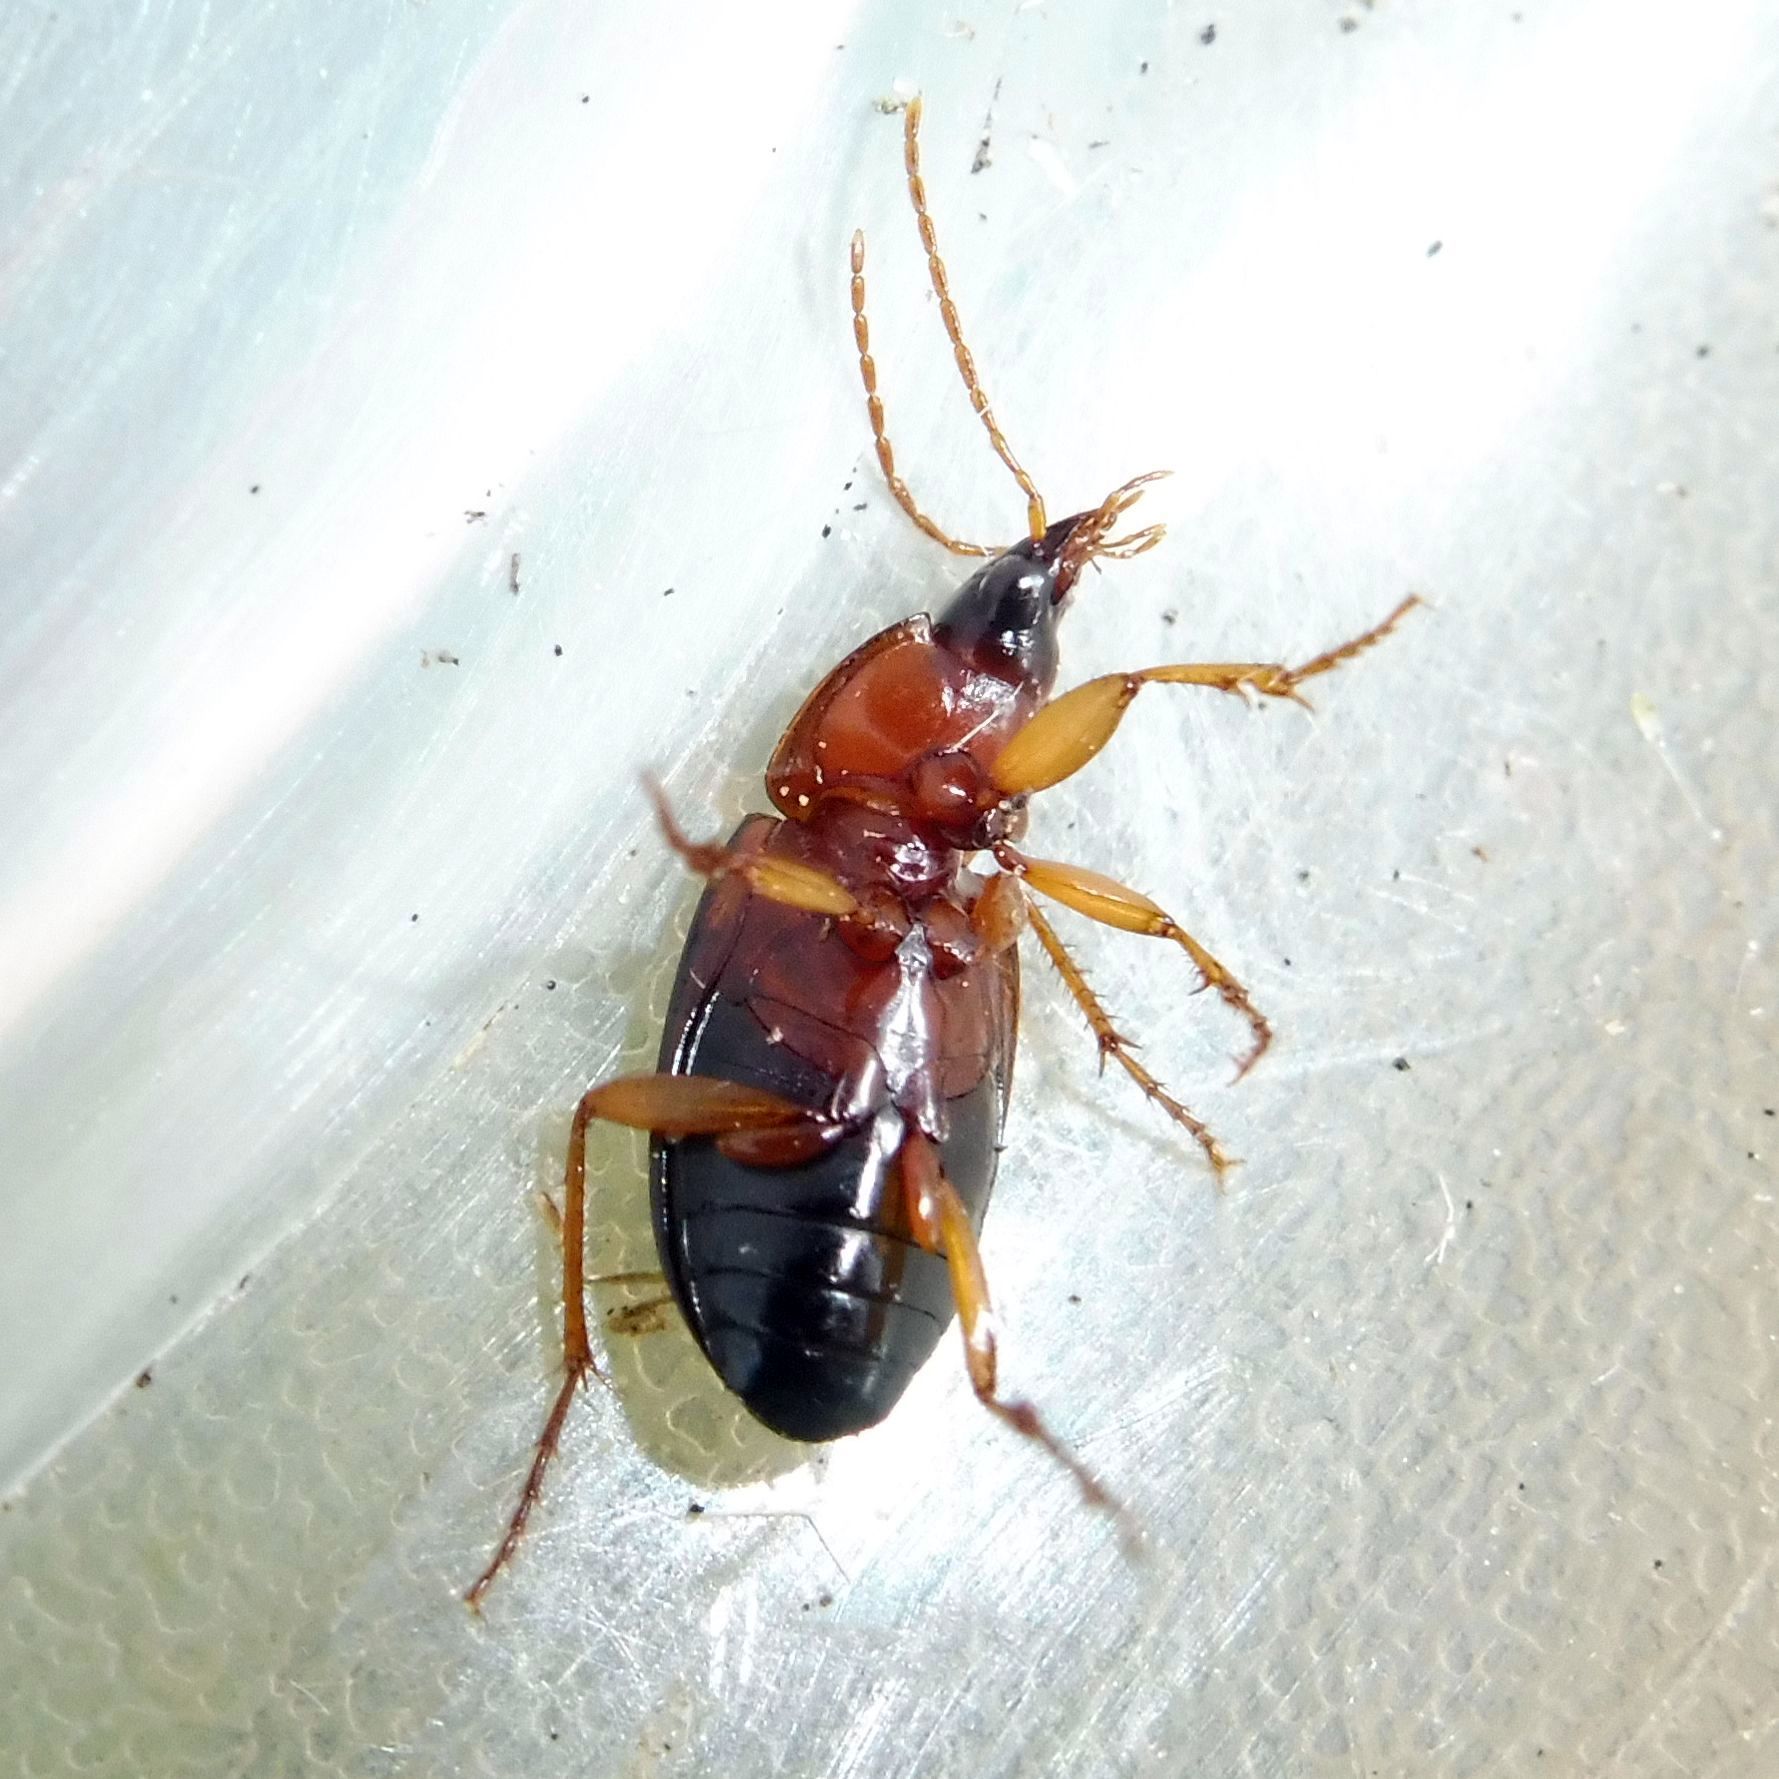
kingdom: Animalia
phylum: Arthropoda
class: Insecta
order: Coleoptera
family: Carabidae
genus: Calathus
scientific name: Calathus melanocephalus
